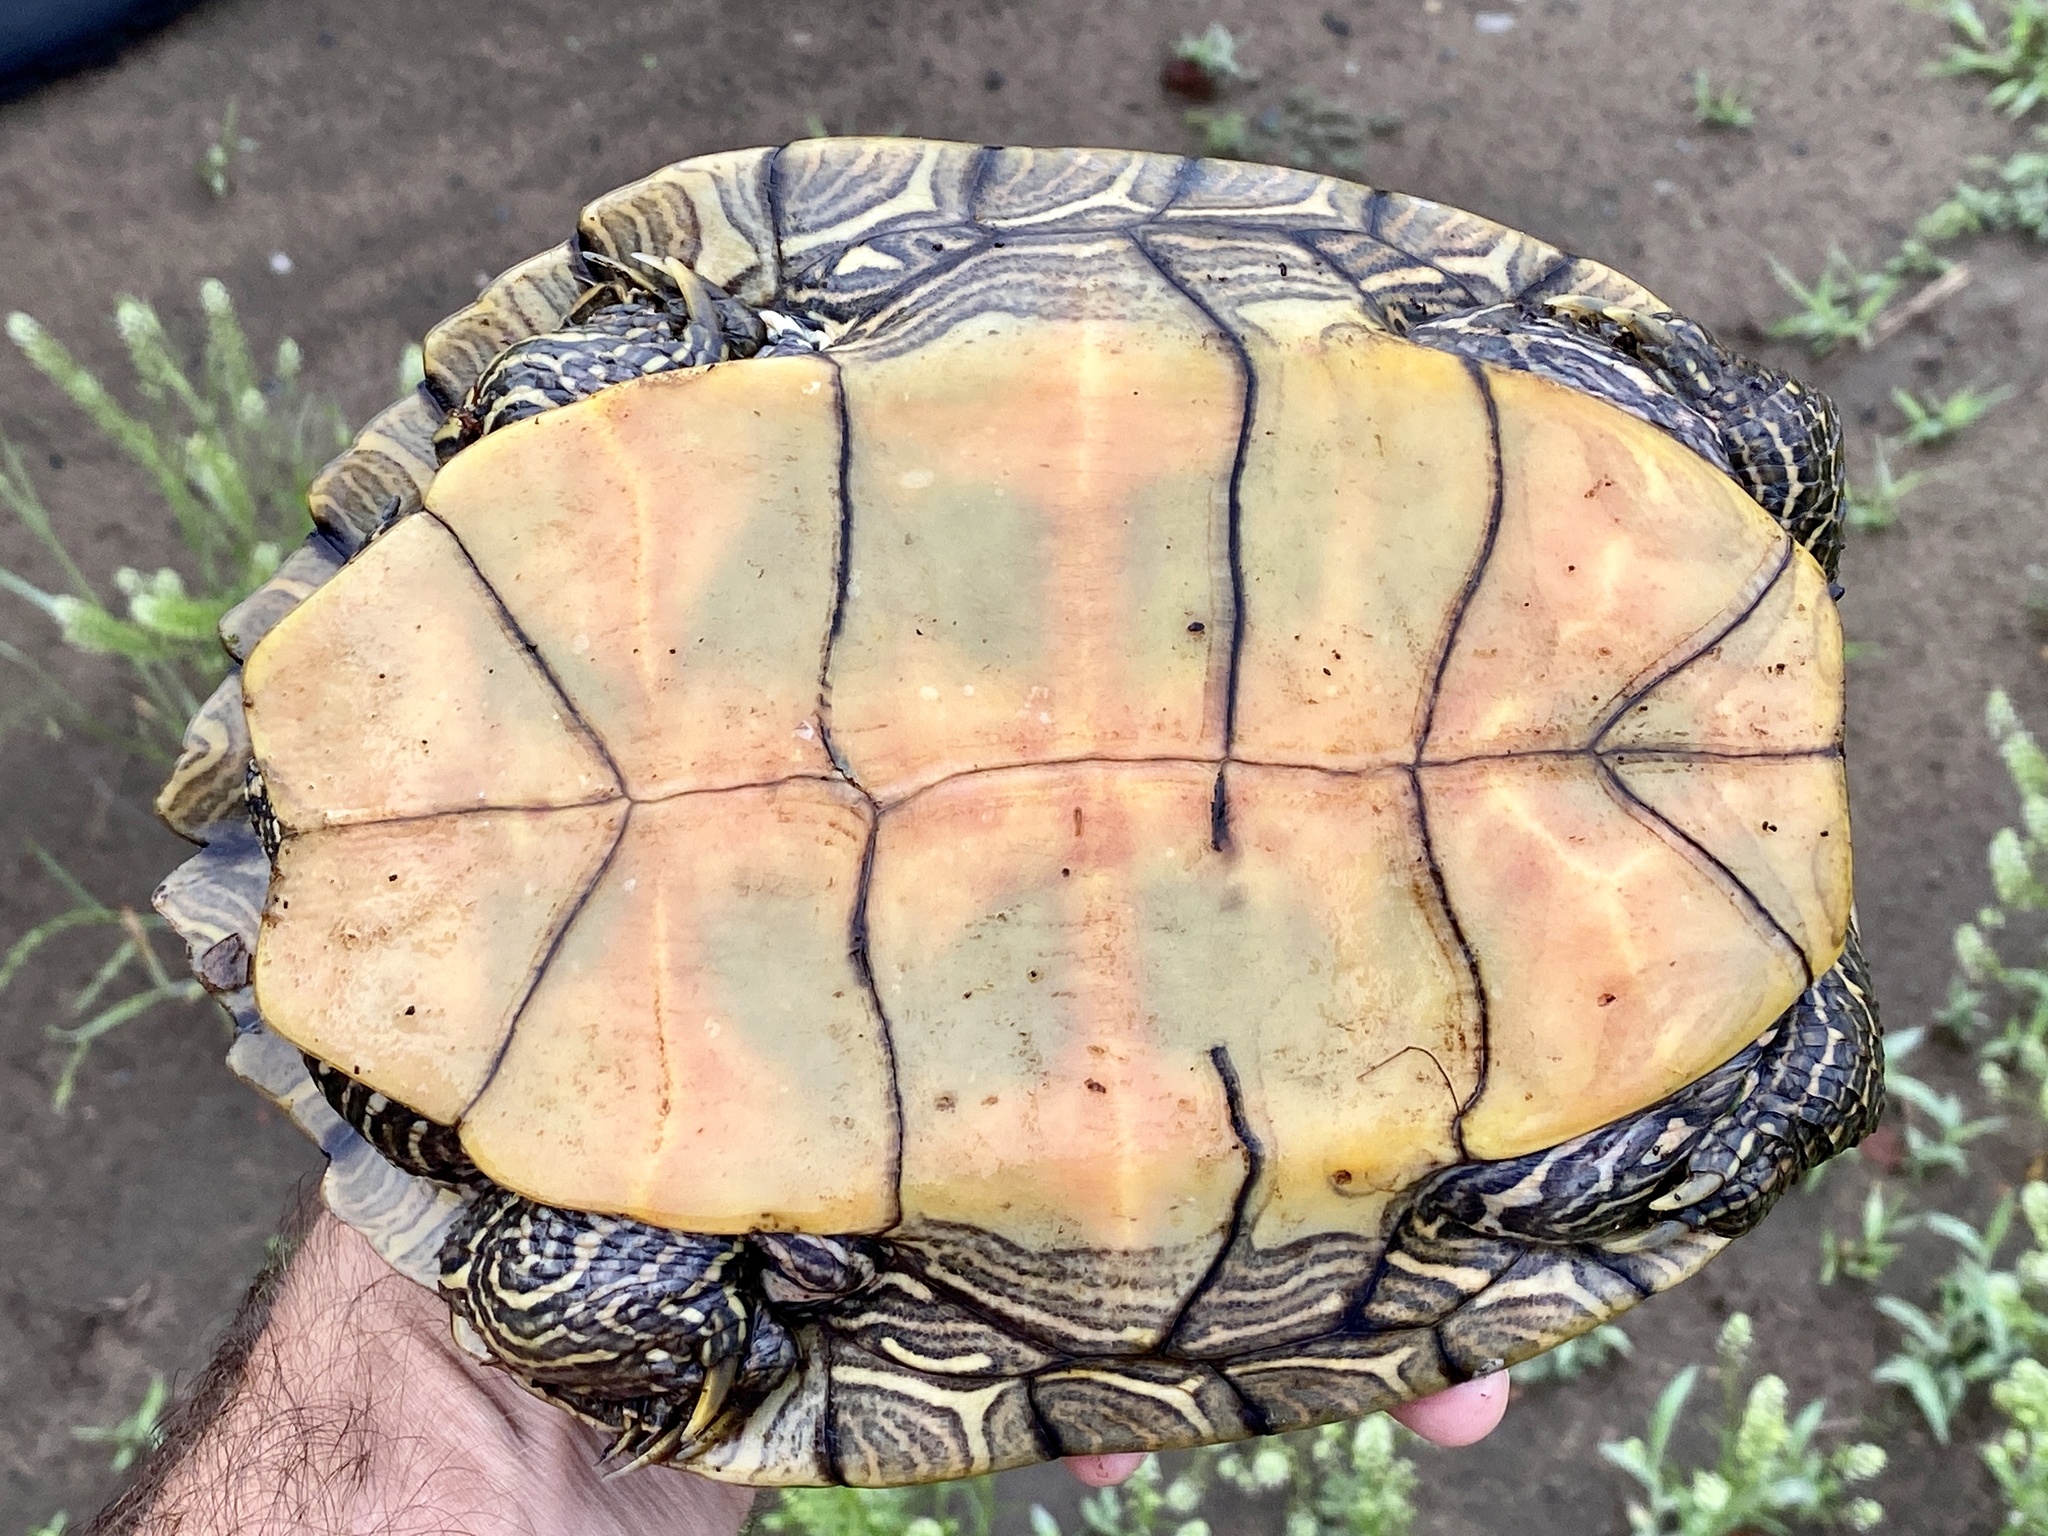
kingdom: Animalia
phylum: Chordata
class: Testudines
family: Emydidae
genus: Graptemys
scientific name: Graptemys geographica
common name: Common map turtle
